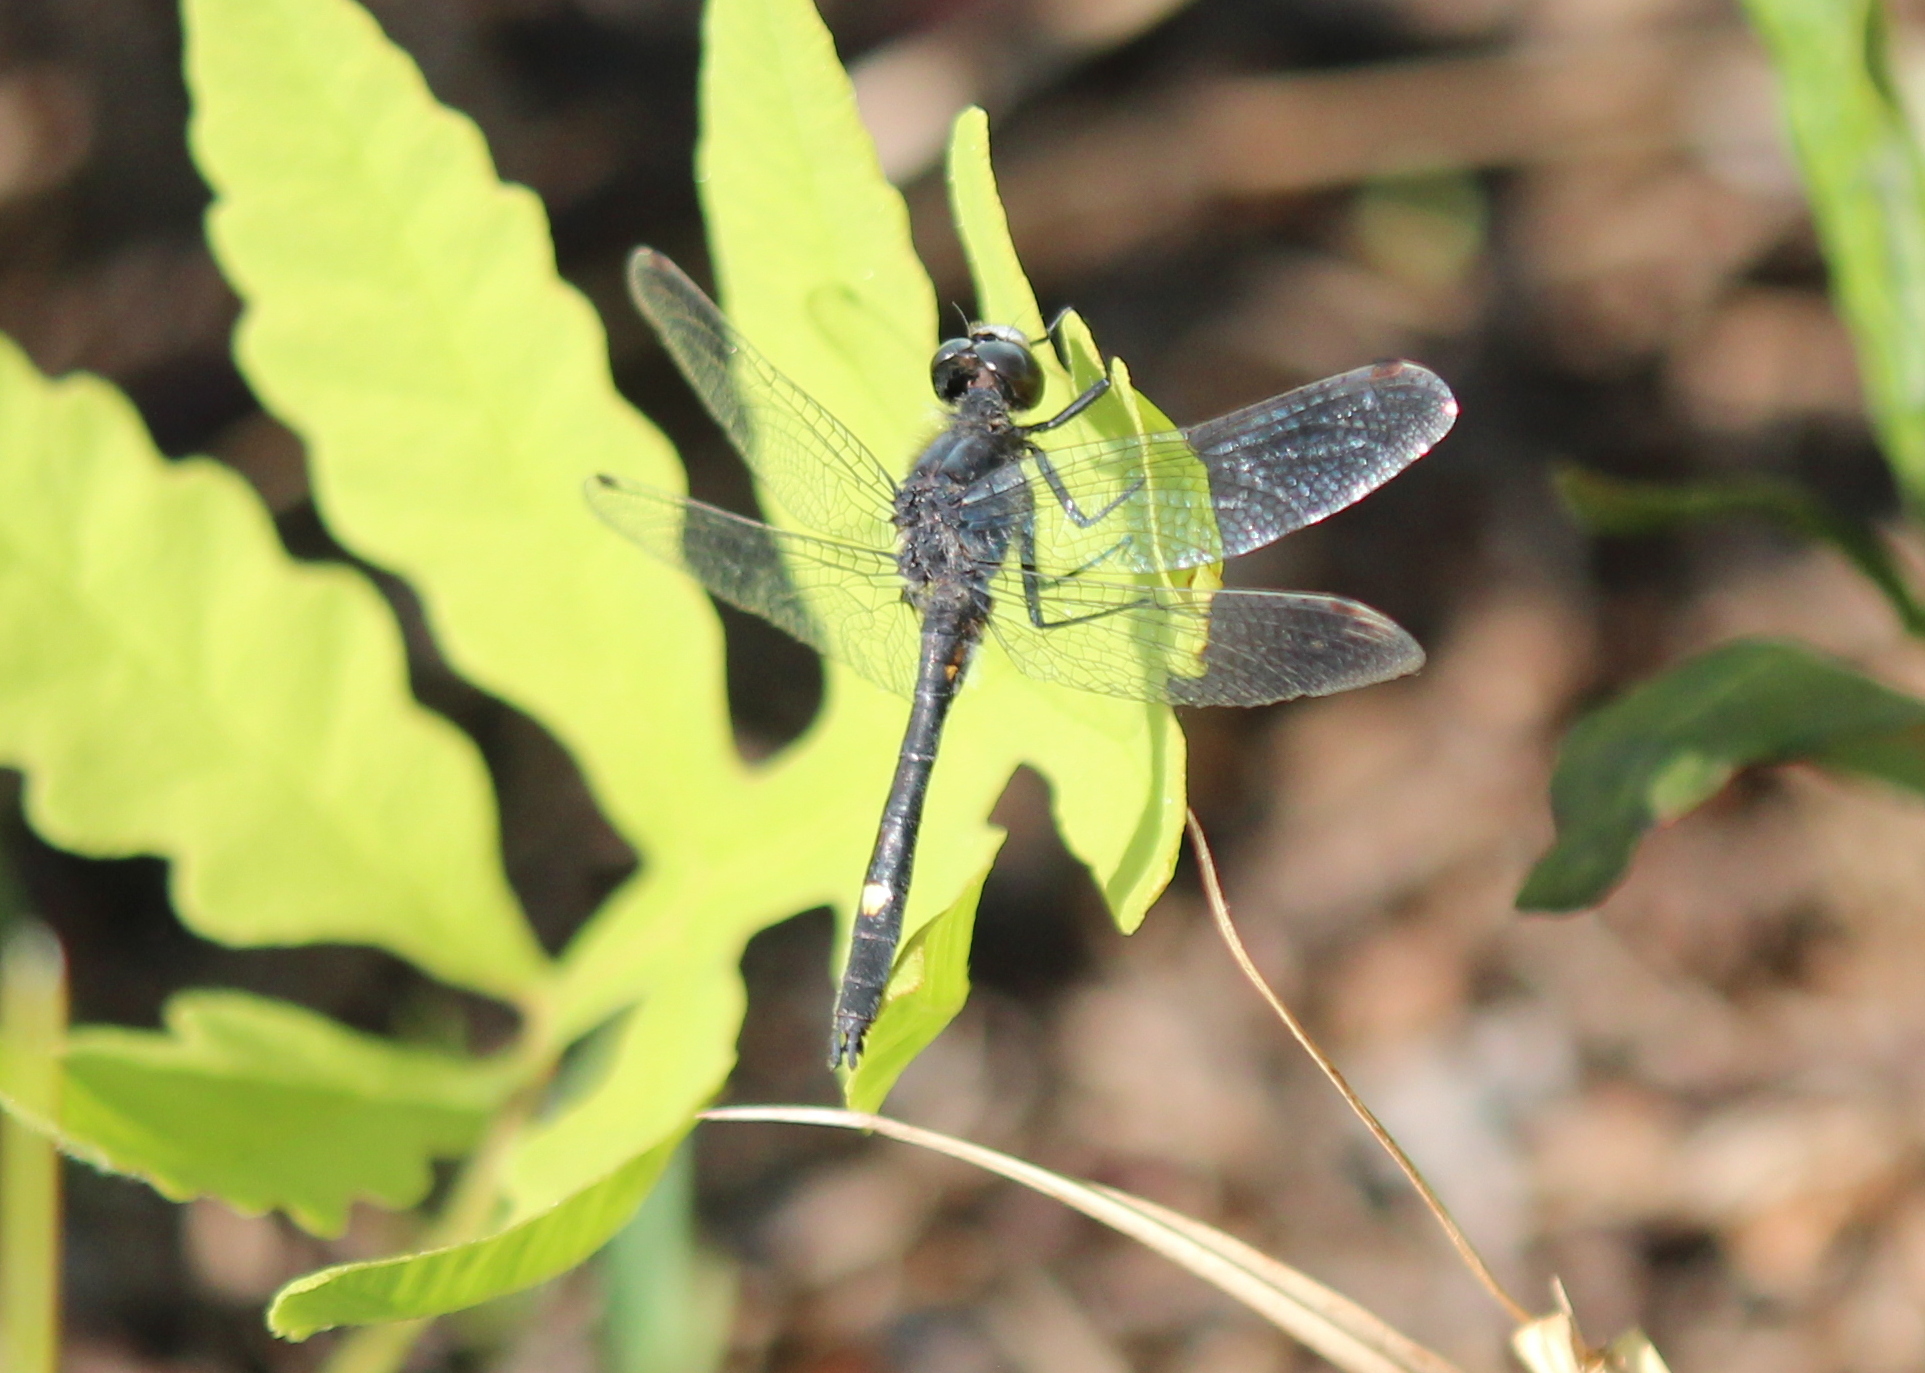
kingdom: Animalia
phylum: Arthropoda
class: Insecta
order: Odonata
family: Libellulidae
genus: Leucorrhinia
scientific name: Leucorrhinia intacta
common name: Dot-tailed whiteface
